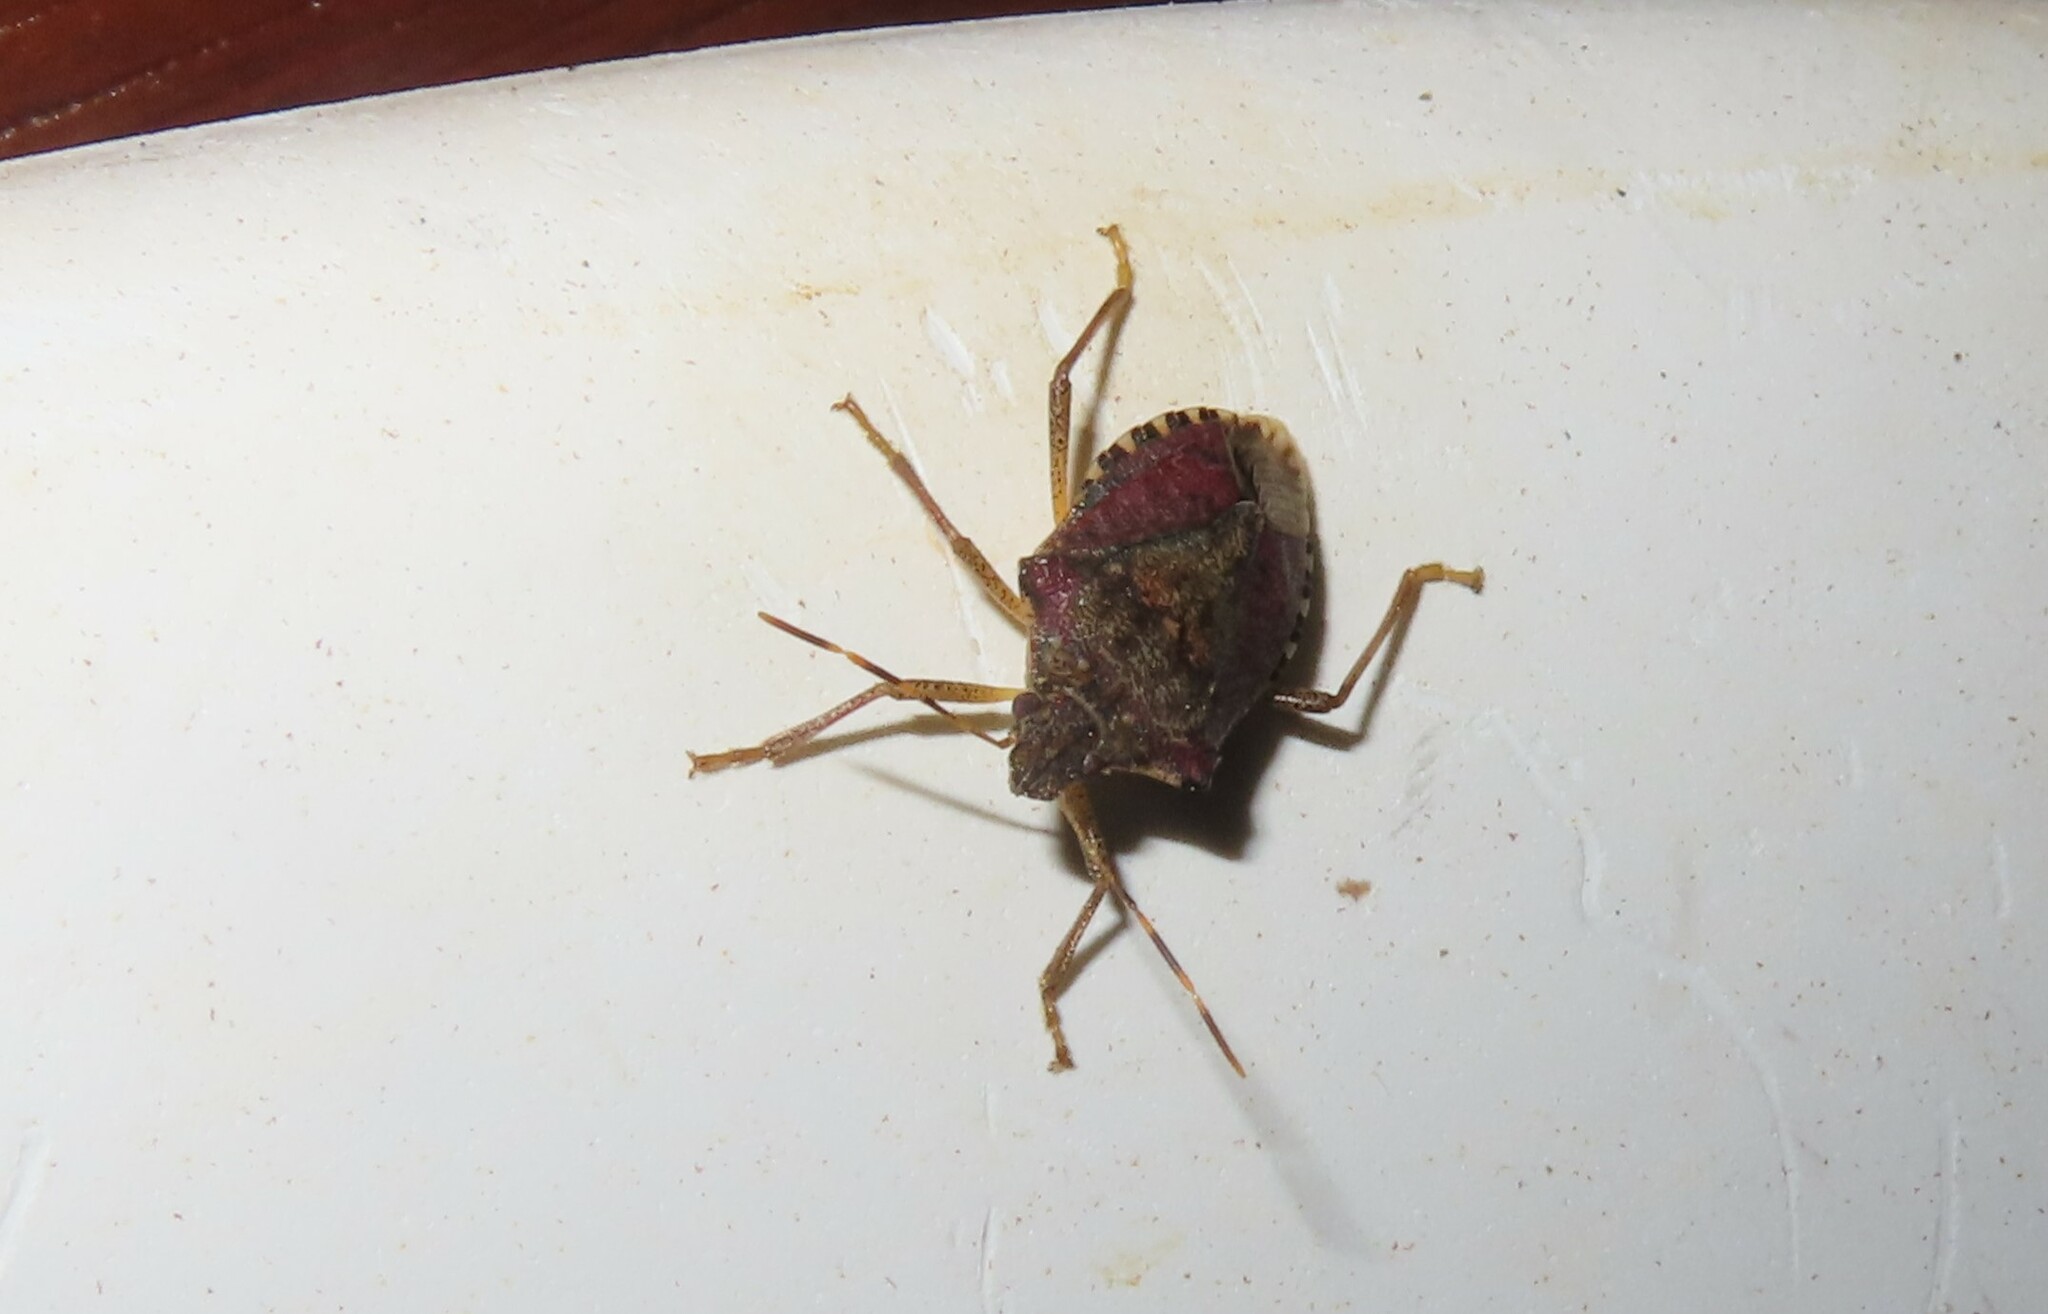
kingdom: Animalia
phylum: Arthropoda
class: Insecta
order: Hemiptera
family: Pentatomidae
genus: Halyomorpha
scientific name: Halyomorpha halys
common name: Brown marmorated stink bug
